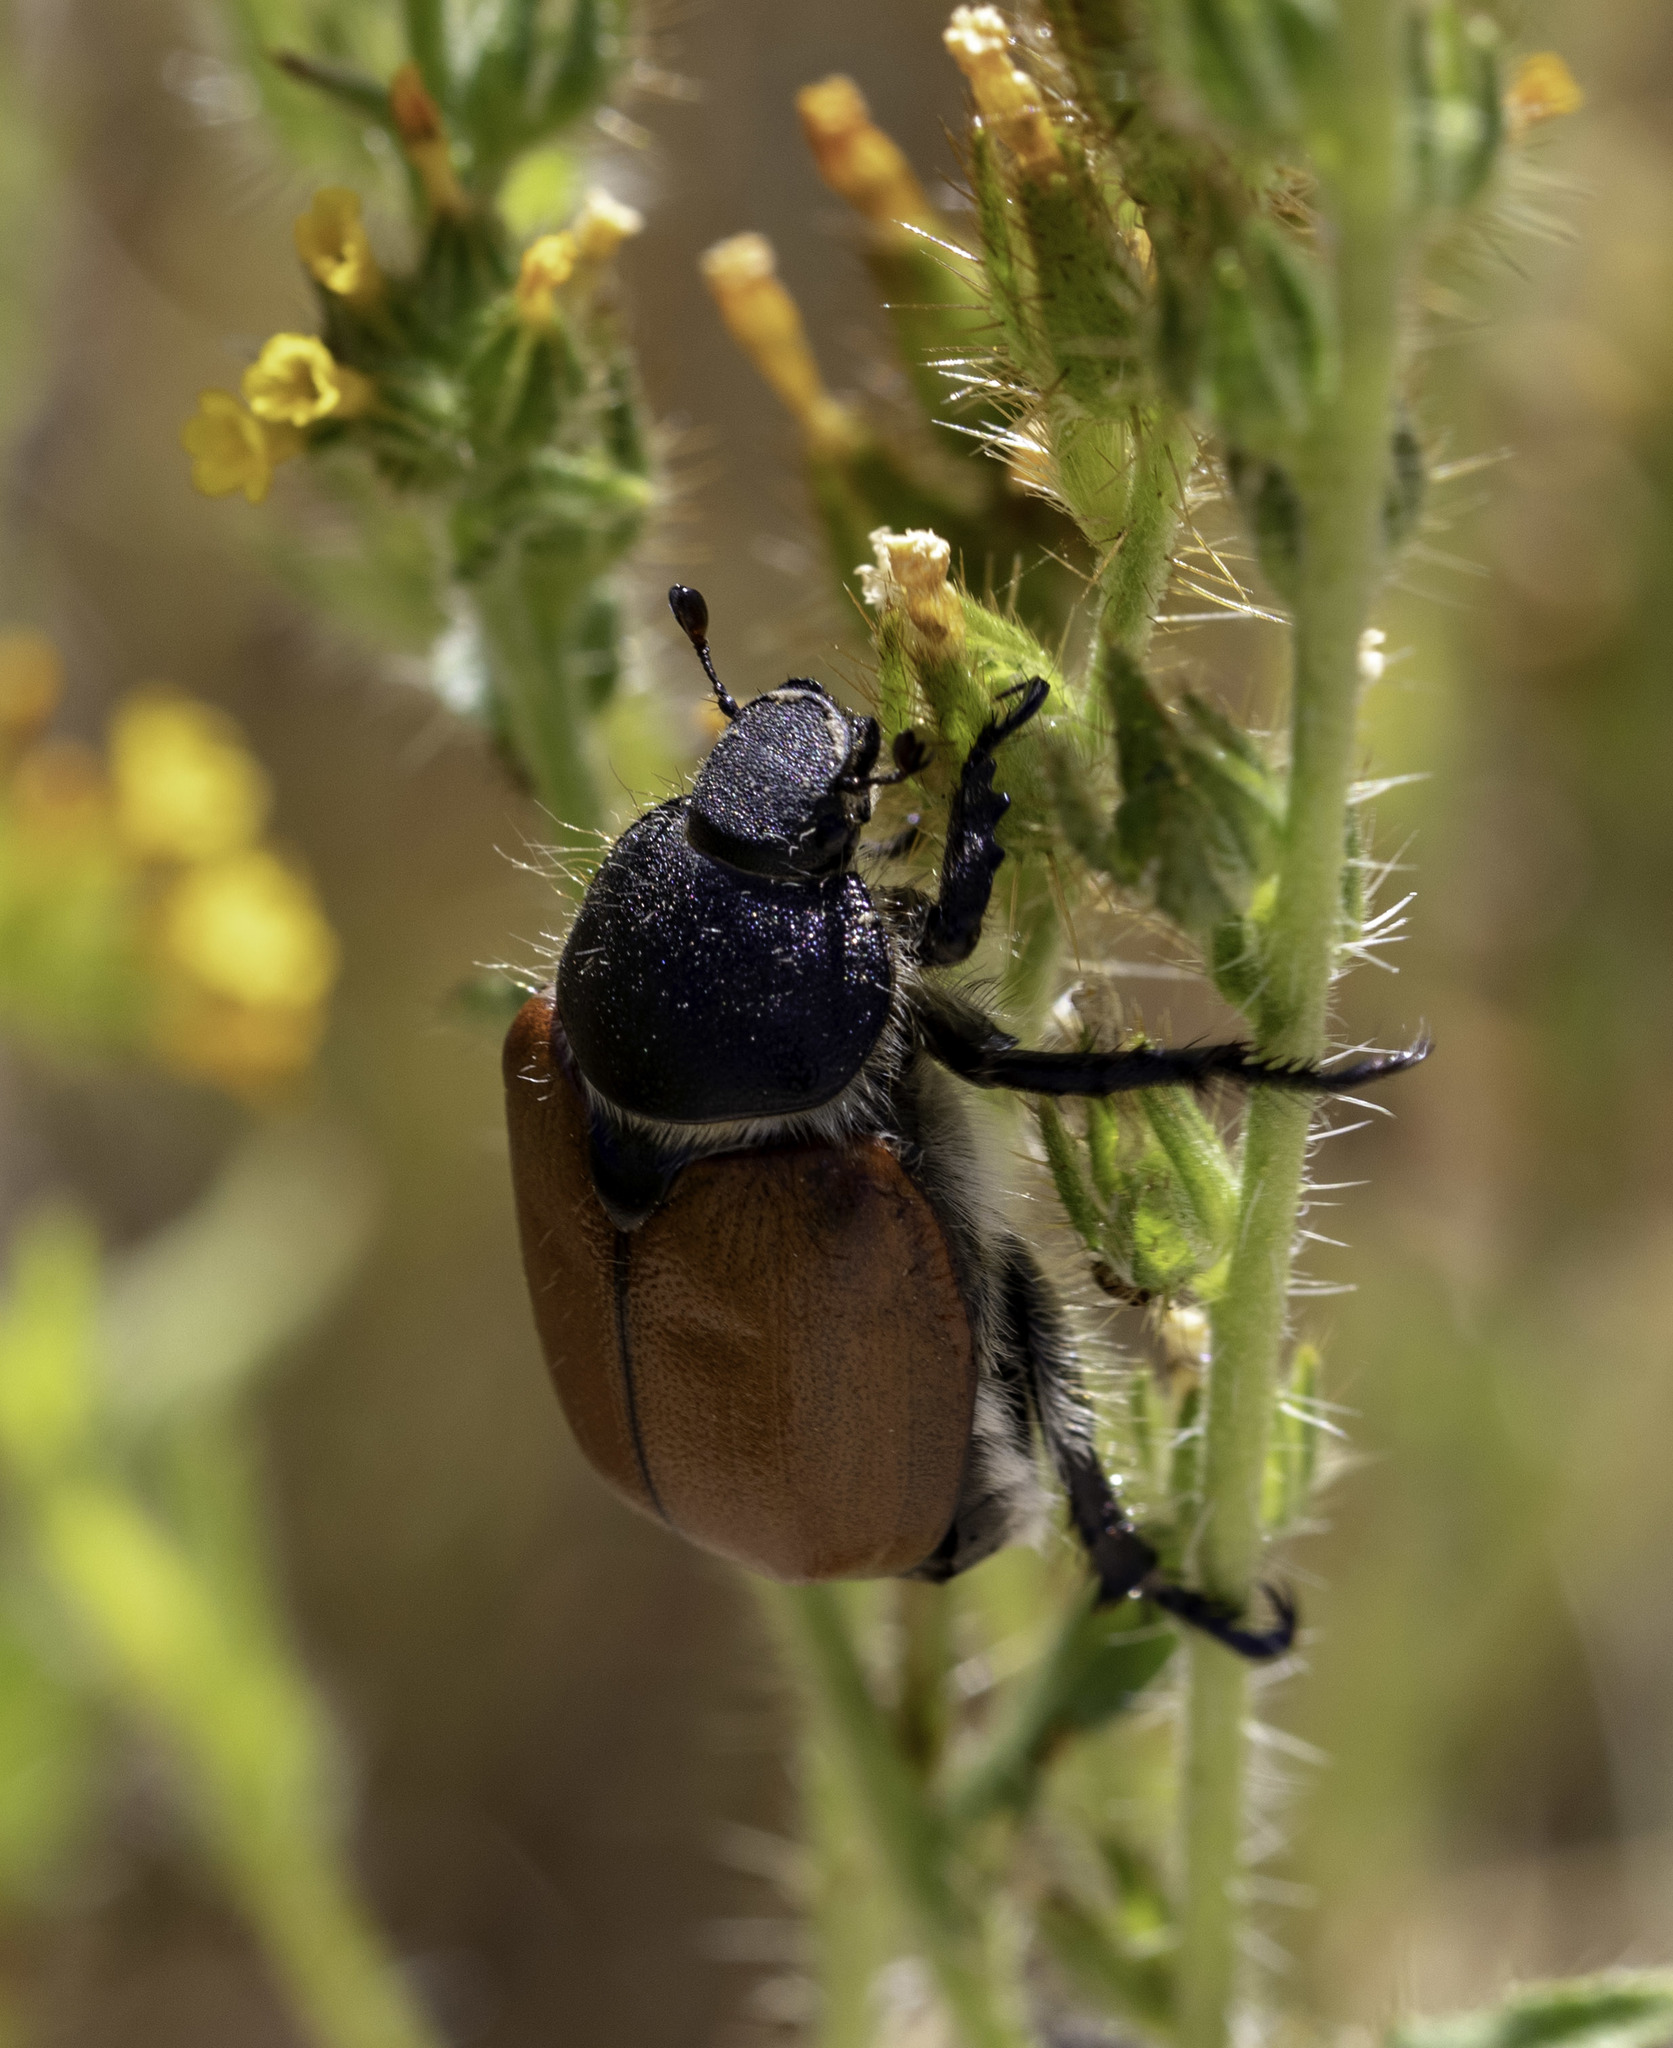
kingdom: Animalia
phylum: Arthropoda
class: Insecta
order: Coleoptera
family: Scarabaeidae
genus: Paracotalpa
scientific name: Paracotalpa ursina
